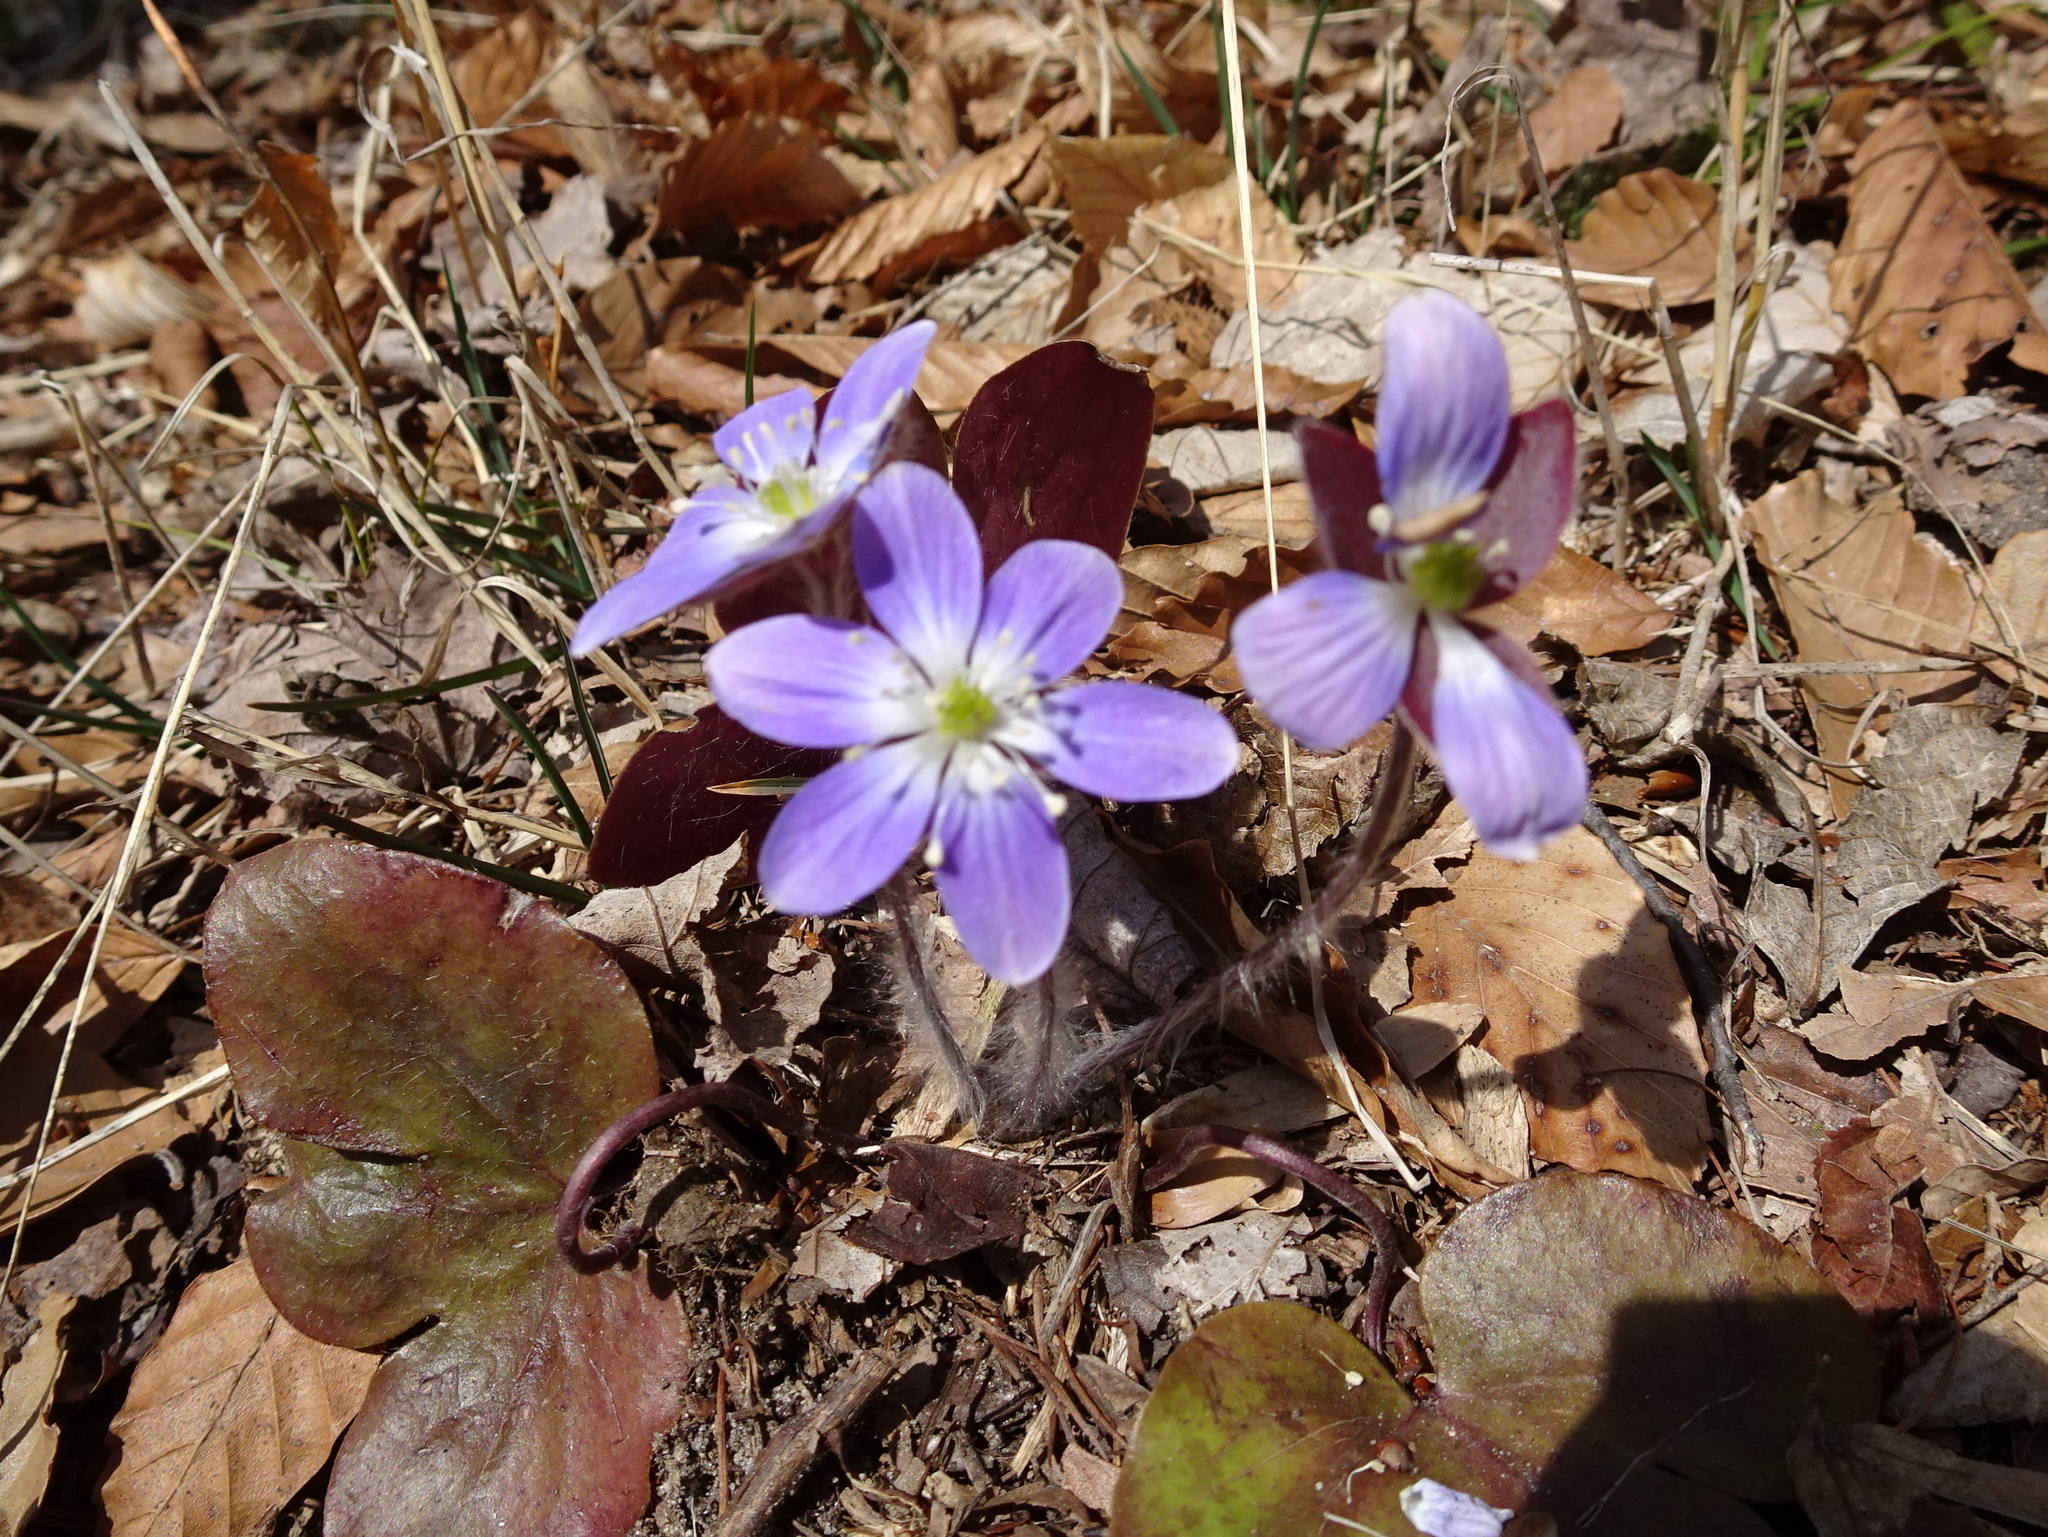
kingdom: Plantae
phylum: Tracheophyta
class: Magnoliopsida
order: Ranunculales
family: Ranunculaceae
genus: Hepatica
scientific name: Hepatica americana
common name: American hepatica
